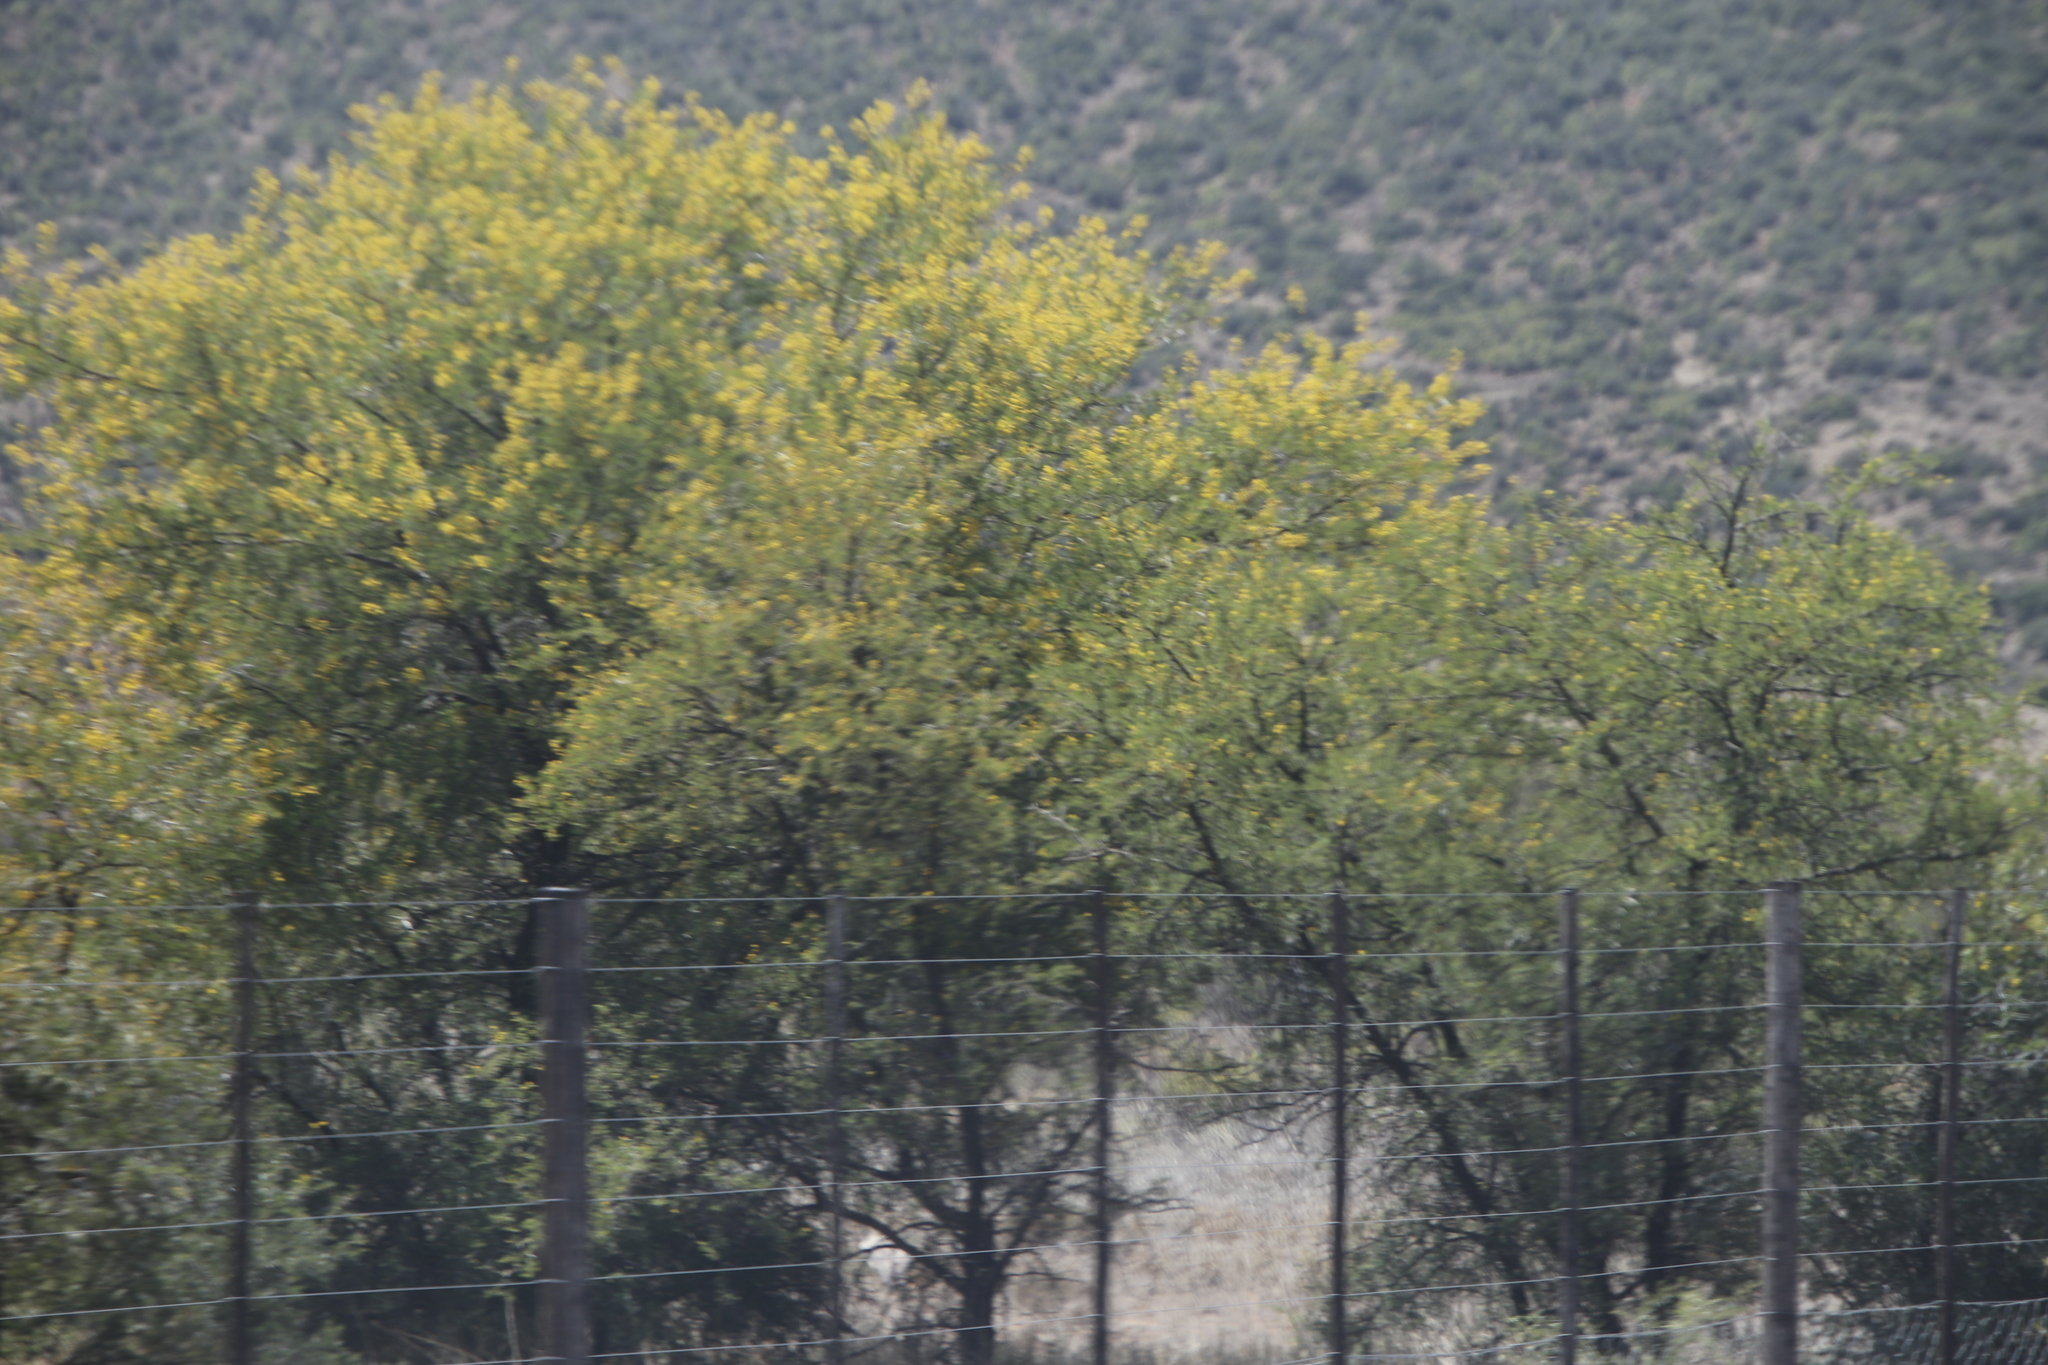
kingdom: Plantae
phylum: Tracheophyta
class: Magnoliopsida
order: Fabales
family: Fabaceae
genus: Vachellia
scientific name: Vachellia karroo
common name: Sweet thorn
